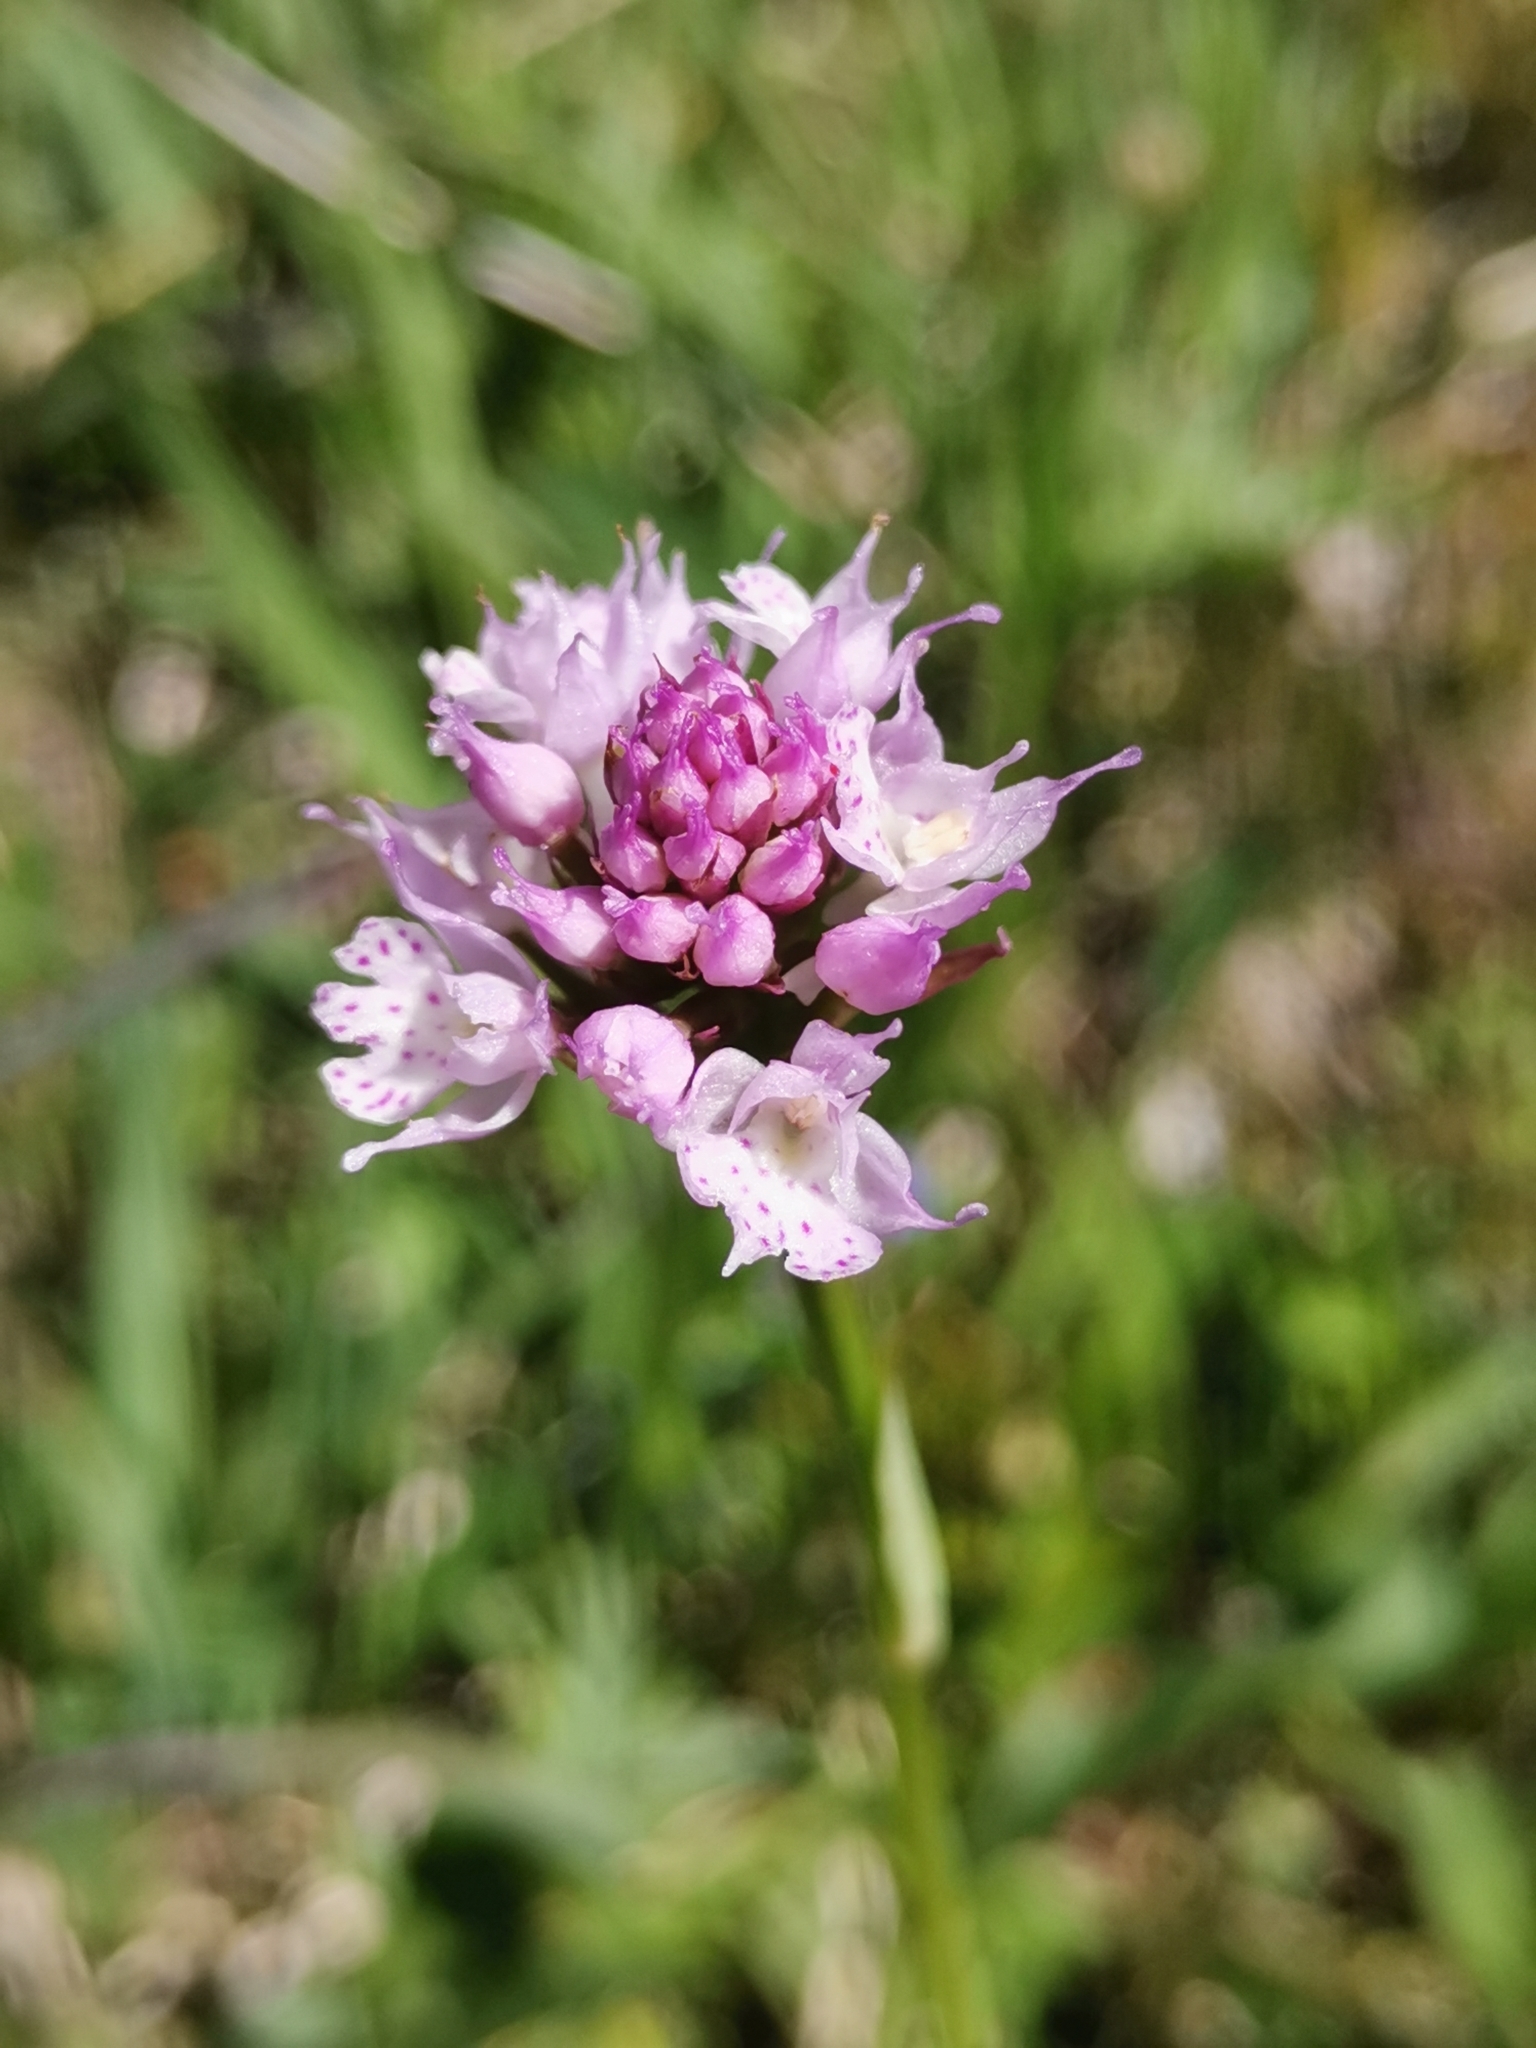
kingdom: Plantae
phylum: Tracheophyta
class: Liliopsida
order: Asparagales
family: Orchidaceae
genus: Traunsteinera
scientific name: Traunsteinera globosa
